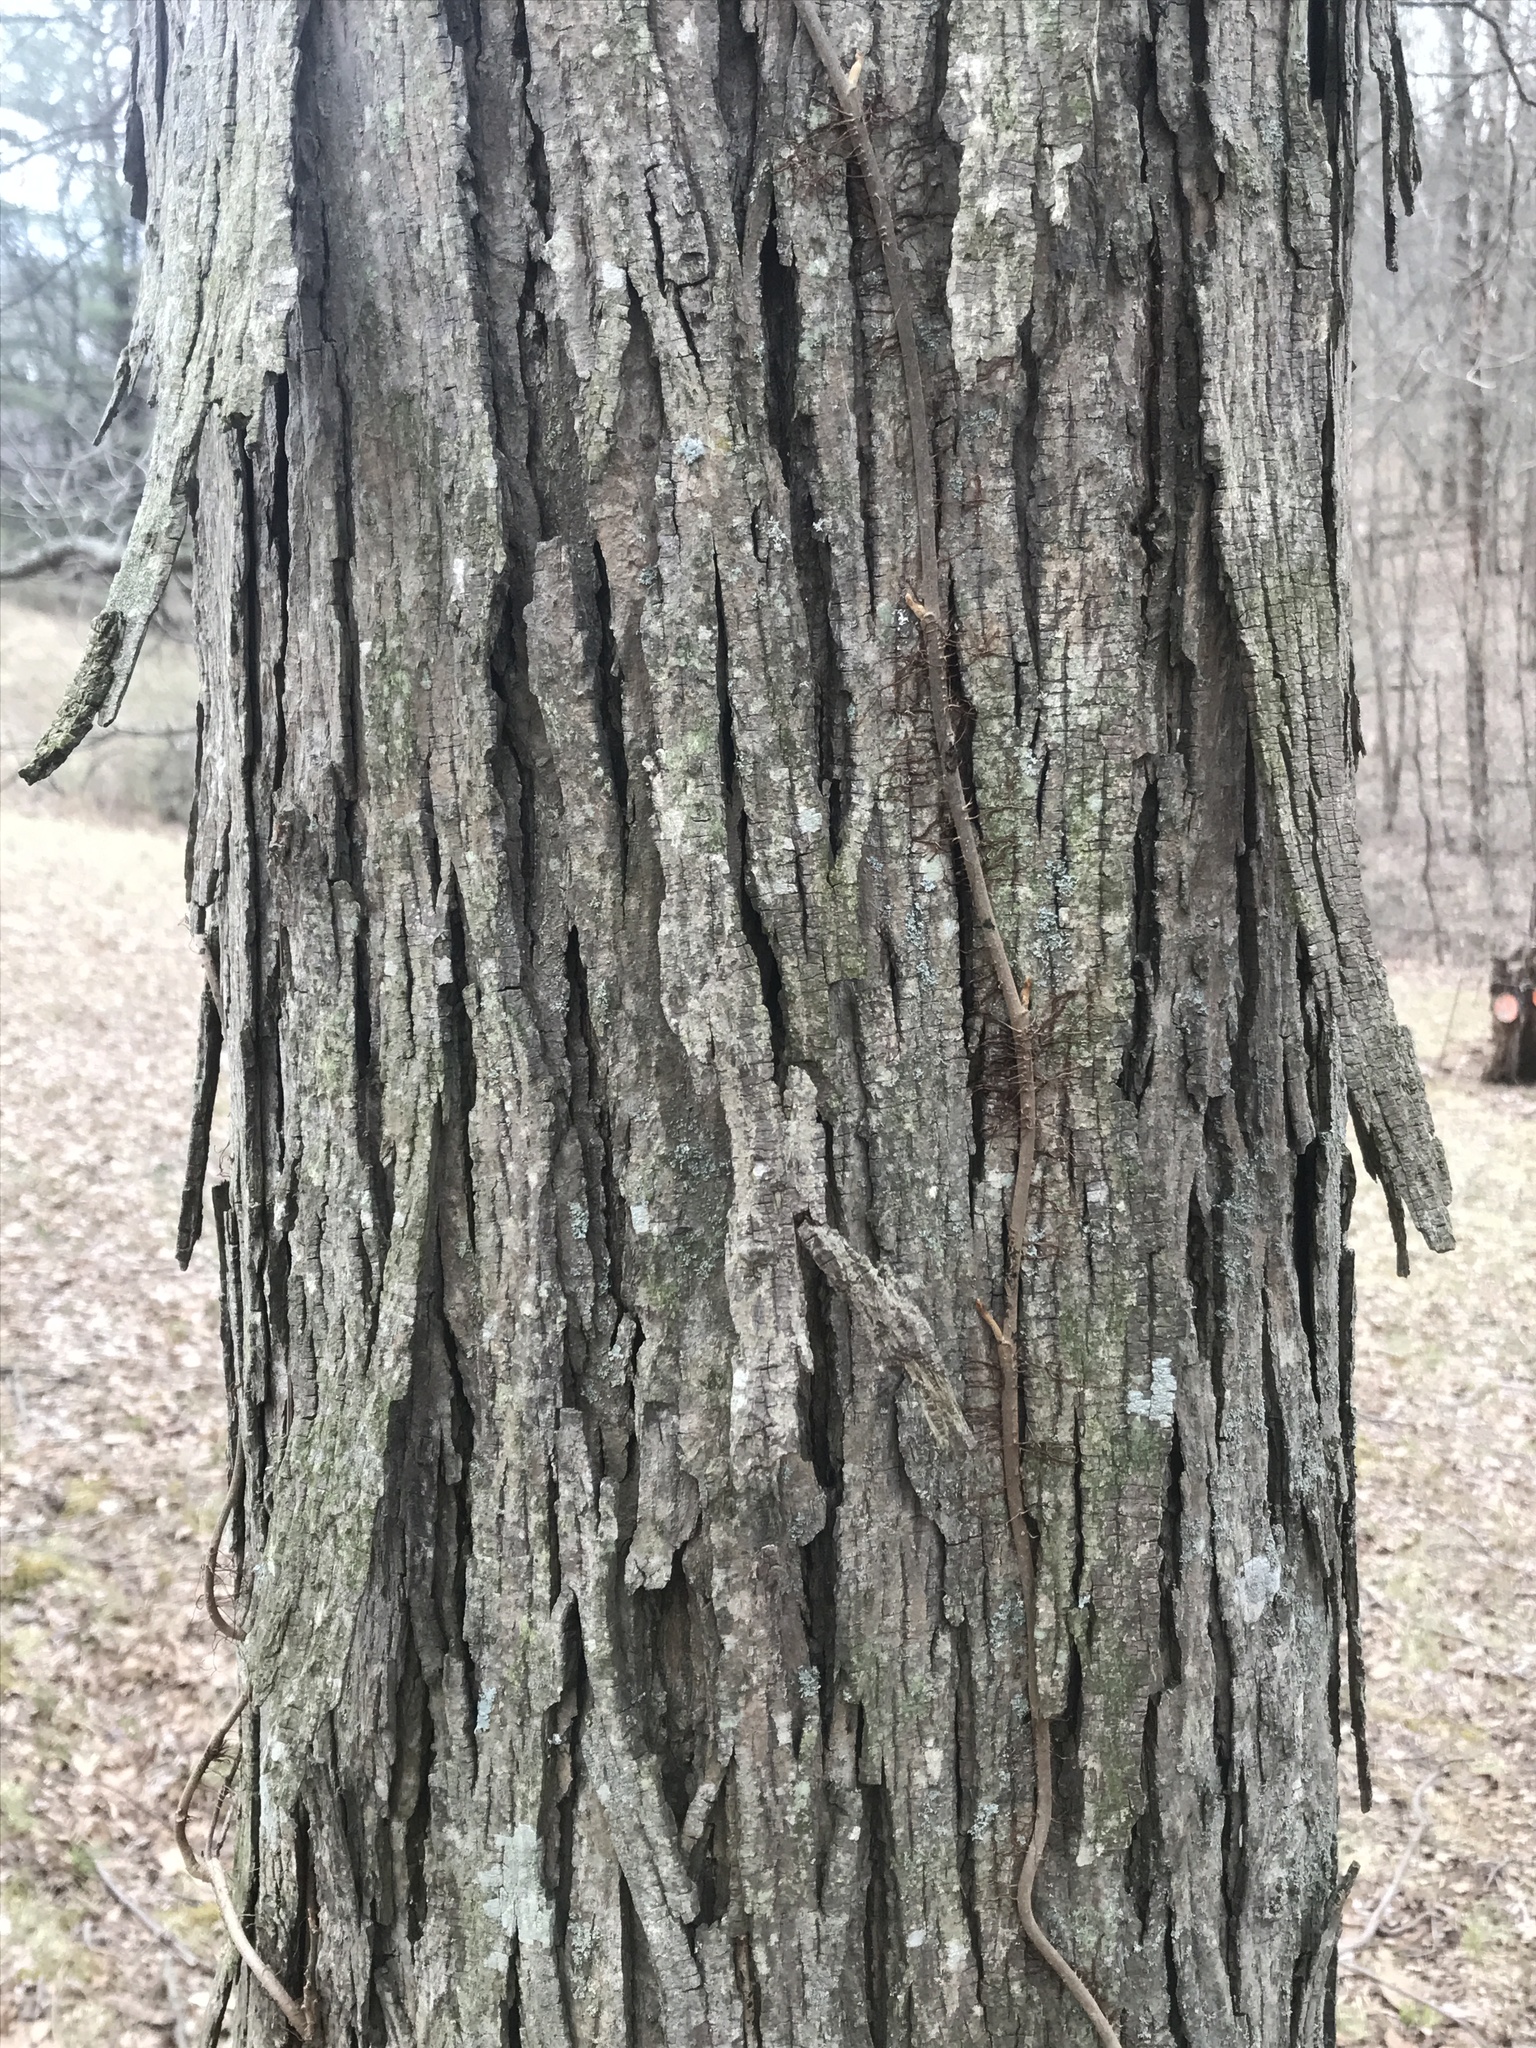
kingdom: Plantae
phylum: Tracheophyta
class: Magnoliopsida
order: Fagales
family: Juglandaceae
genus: Carya
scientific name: Carya ovata
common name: Shagbark hickory
